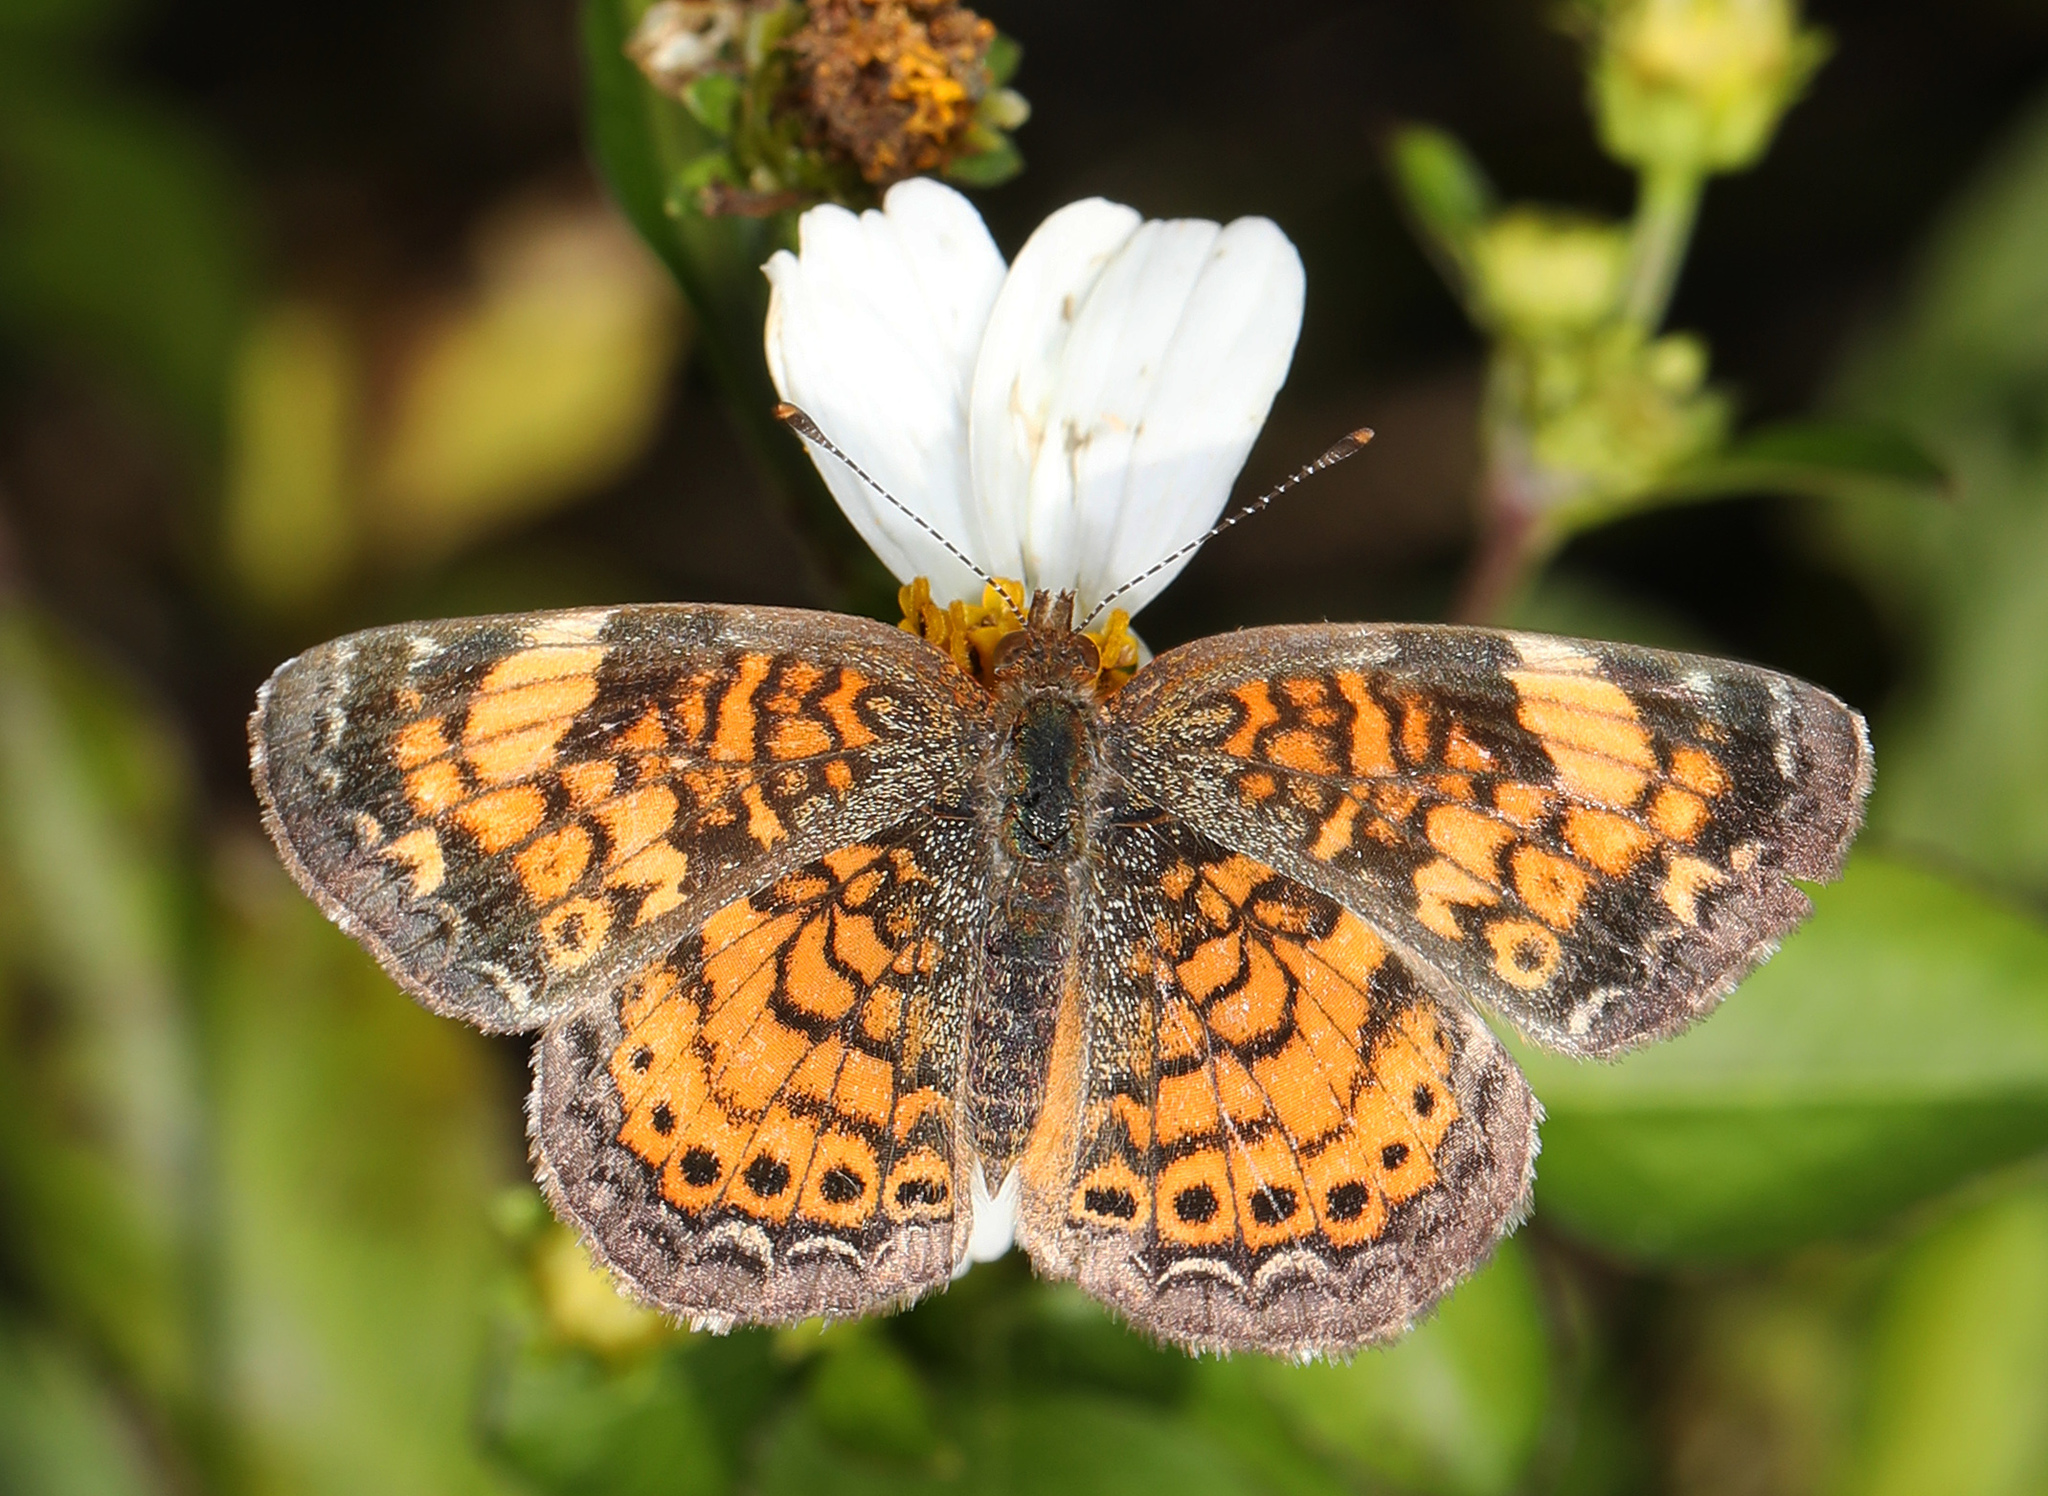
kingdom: Animalia
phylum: Arthropoda
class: Insecta
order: Lepidoptera
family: Nymphalidae
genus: Phyciodes
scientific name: Phyciodes tharos
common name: Pearl crescent
